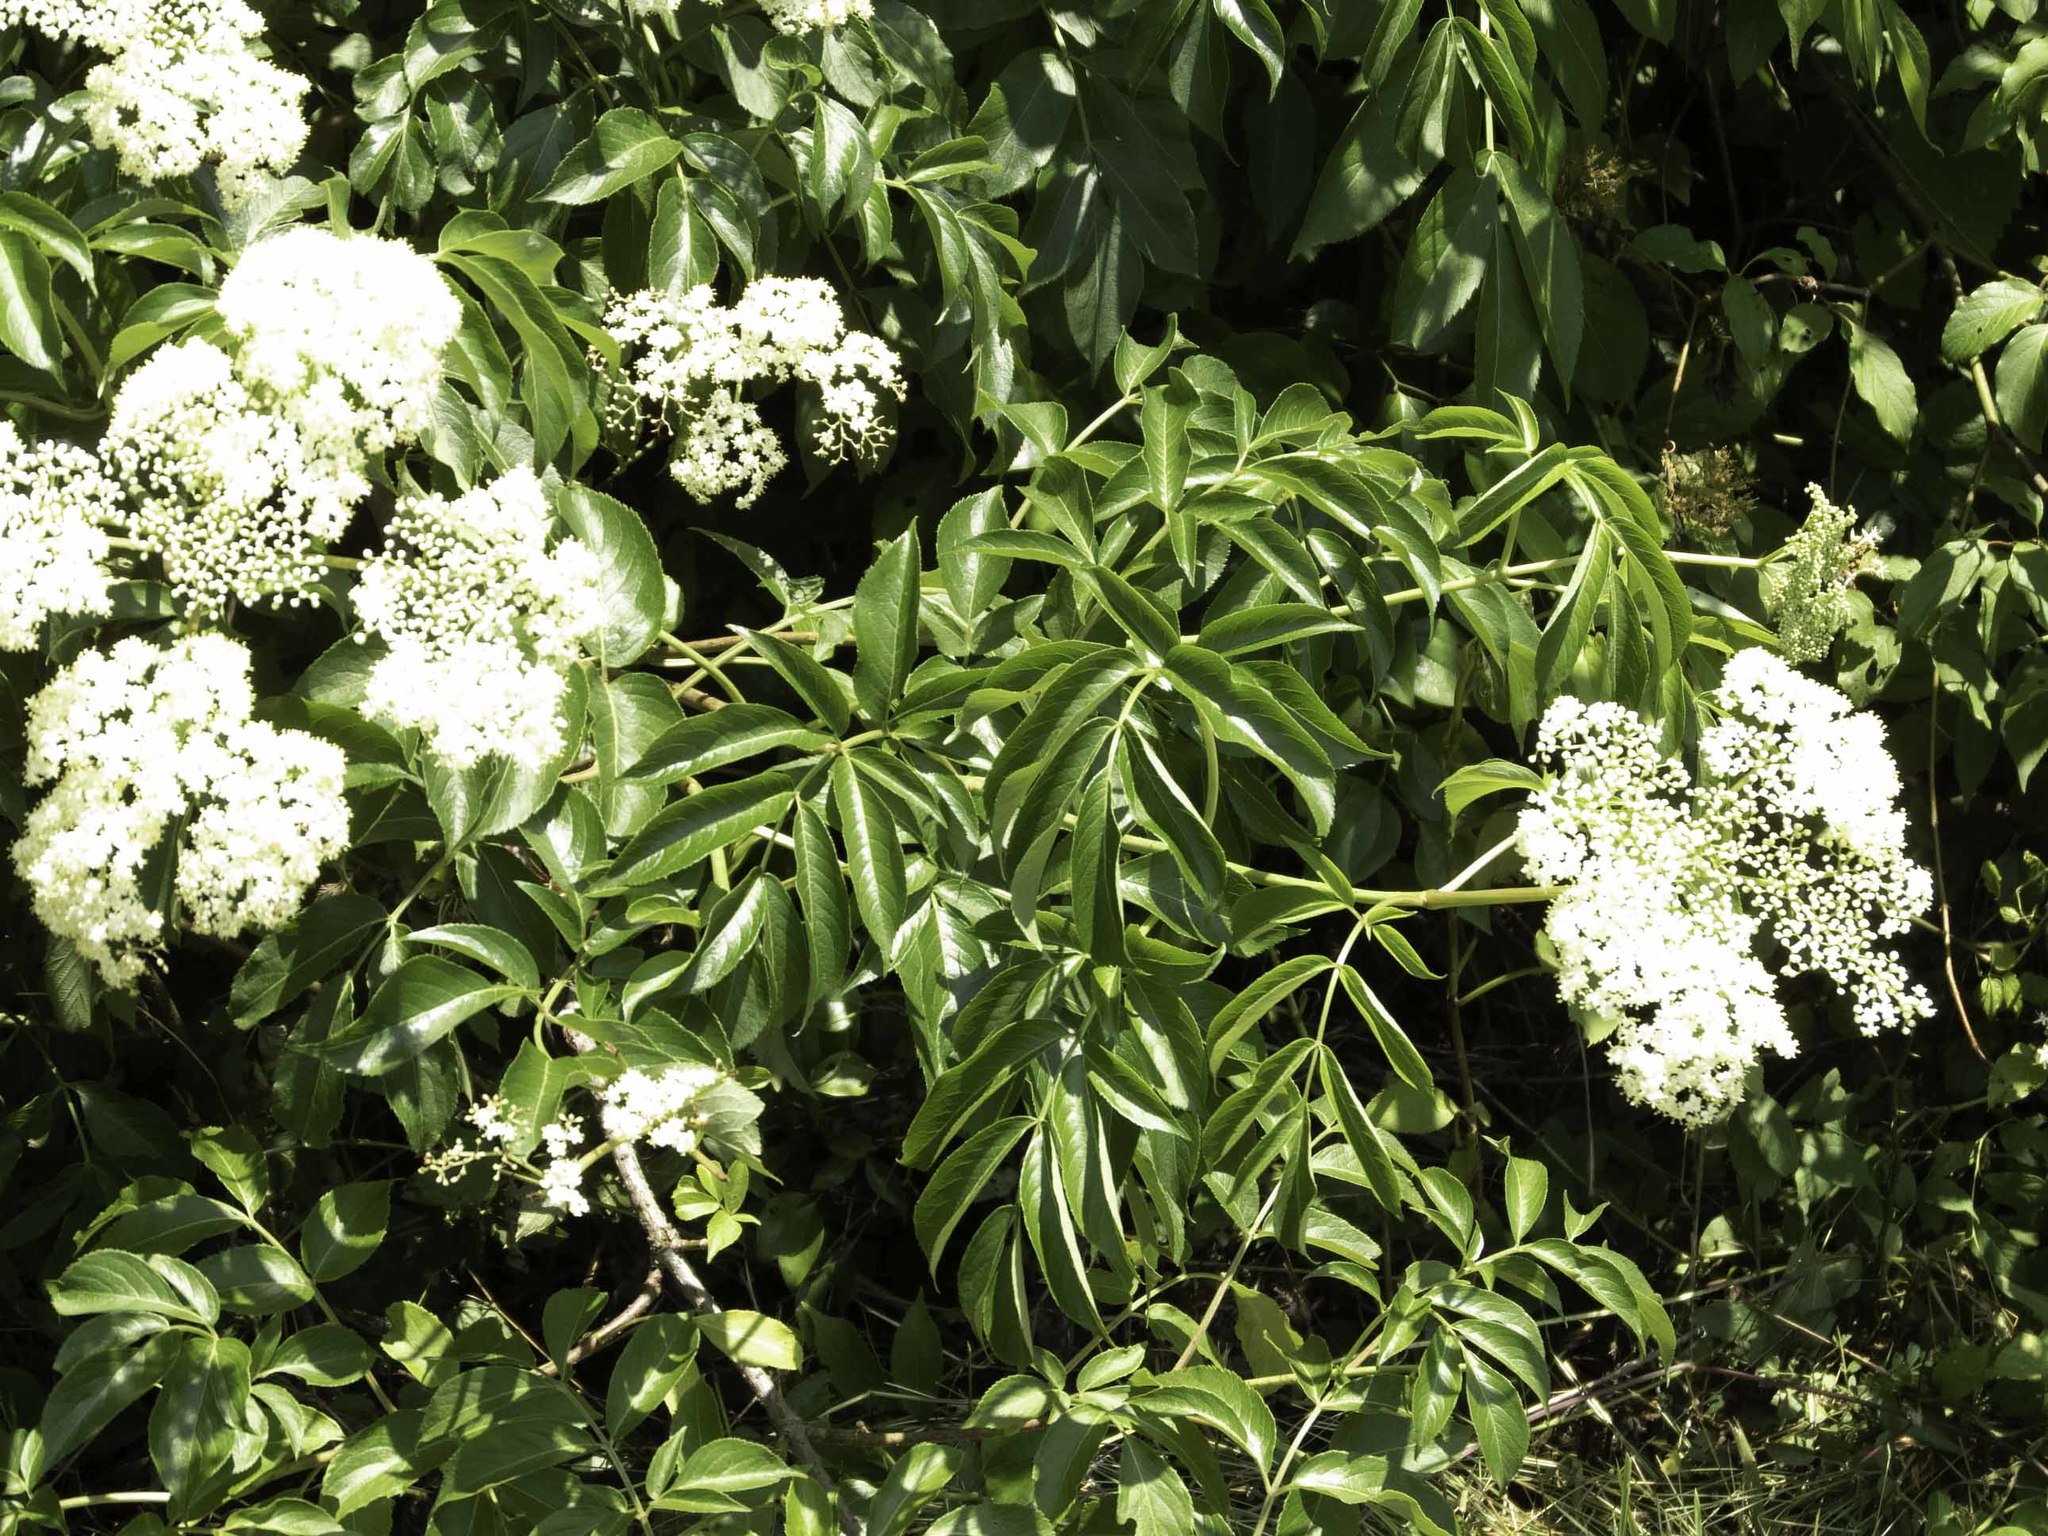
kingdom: Plantae
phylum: Tracheophyta
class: Magnoliopsida
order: Dipsacales
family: Viburnaceae
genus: Sambucus
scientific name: Sambucus canadensis
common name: American elder
